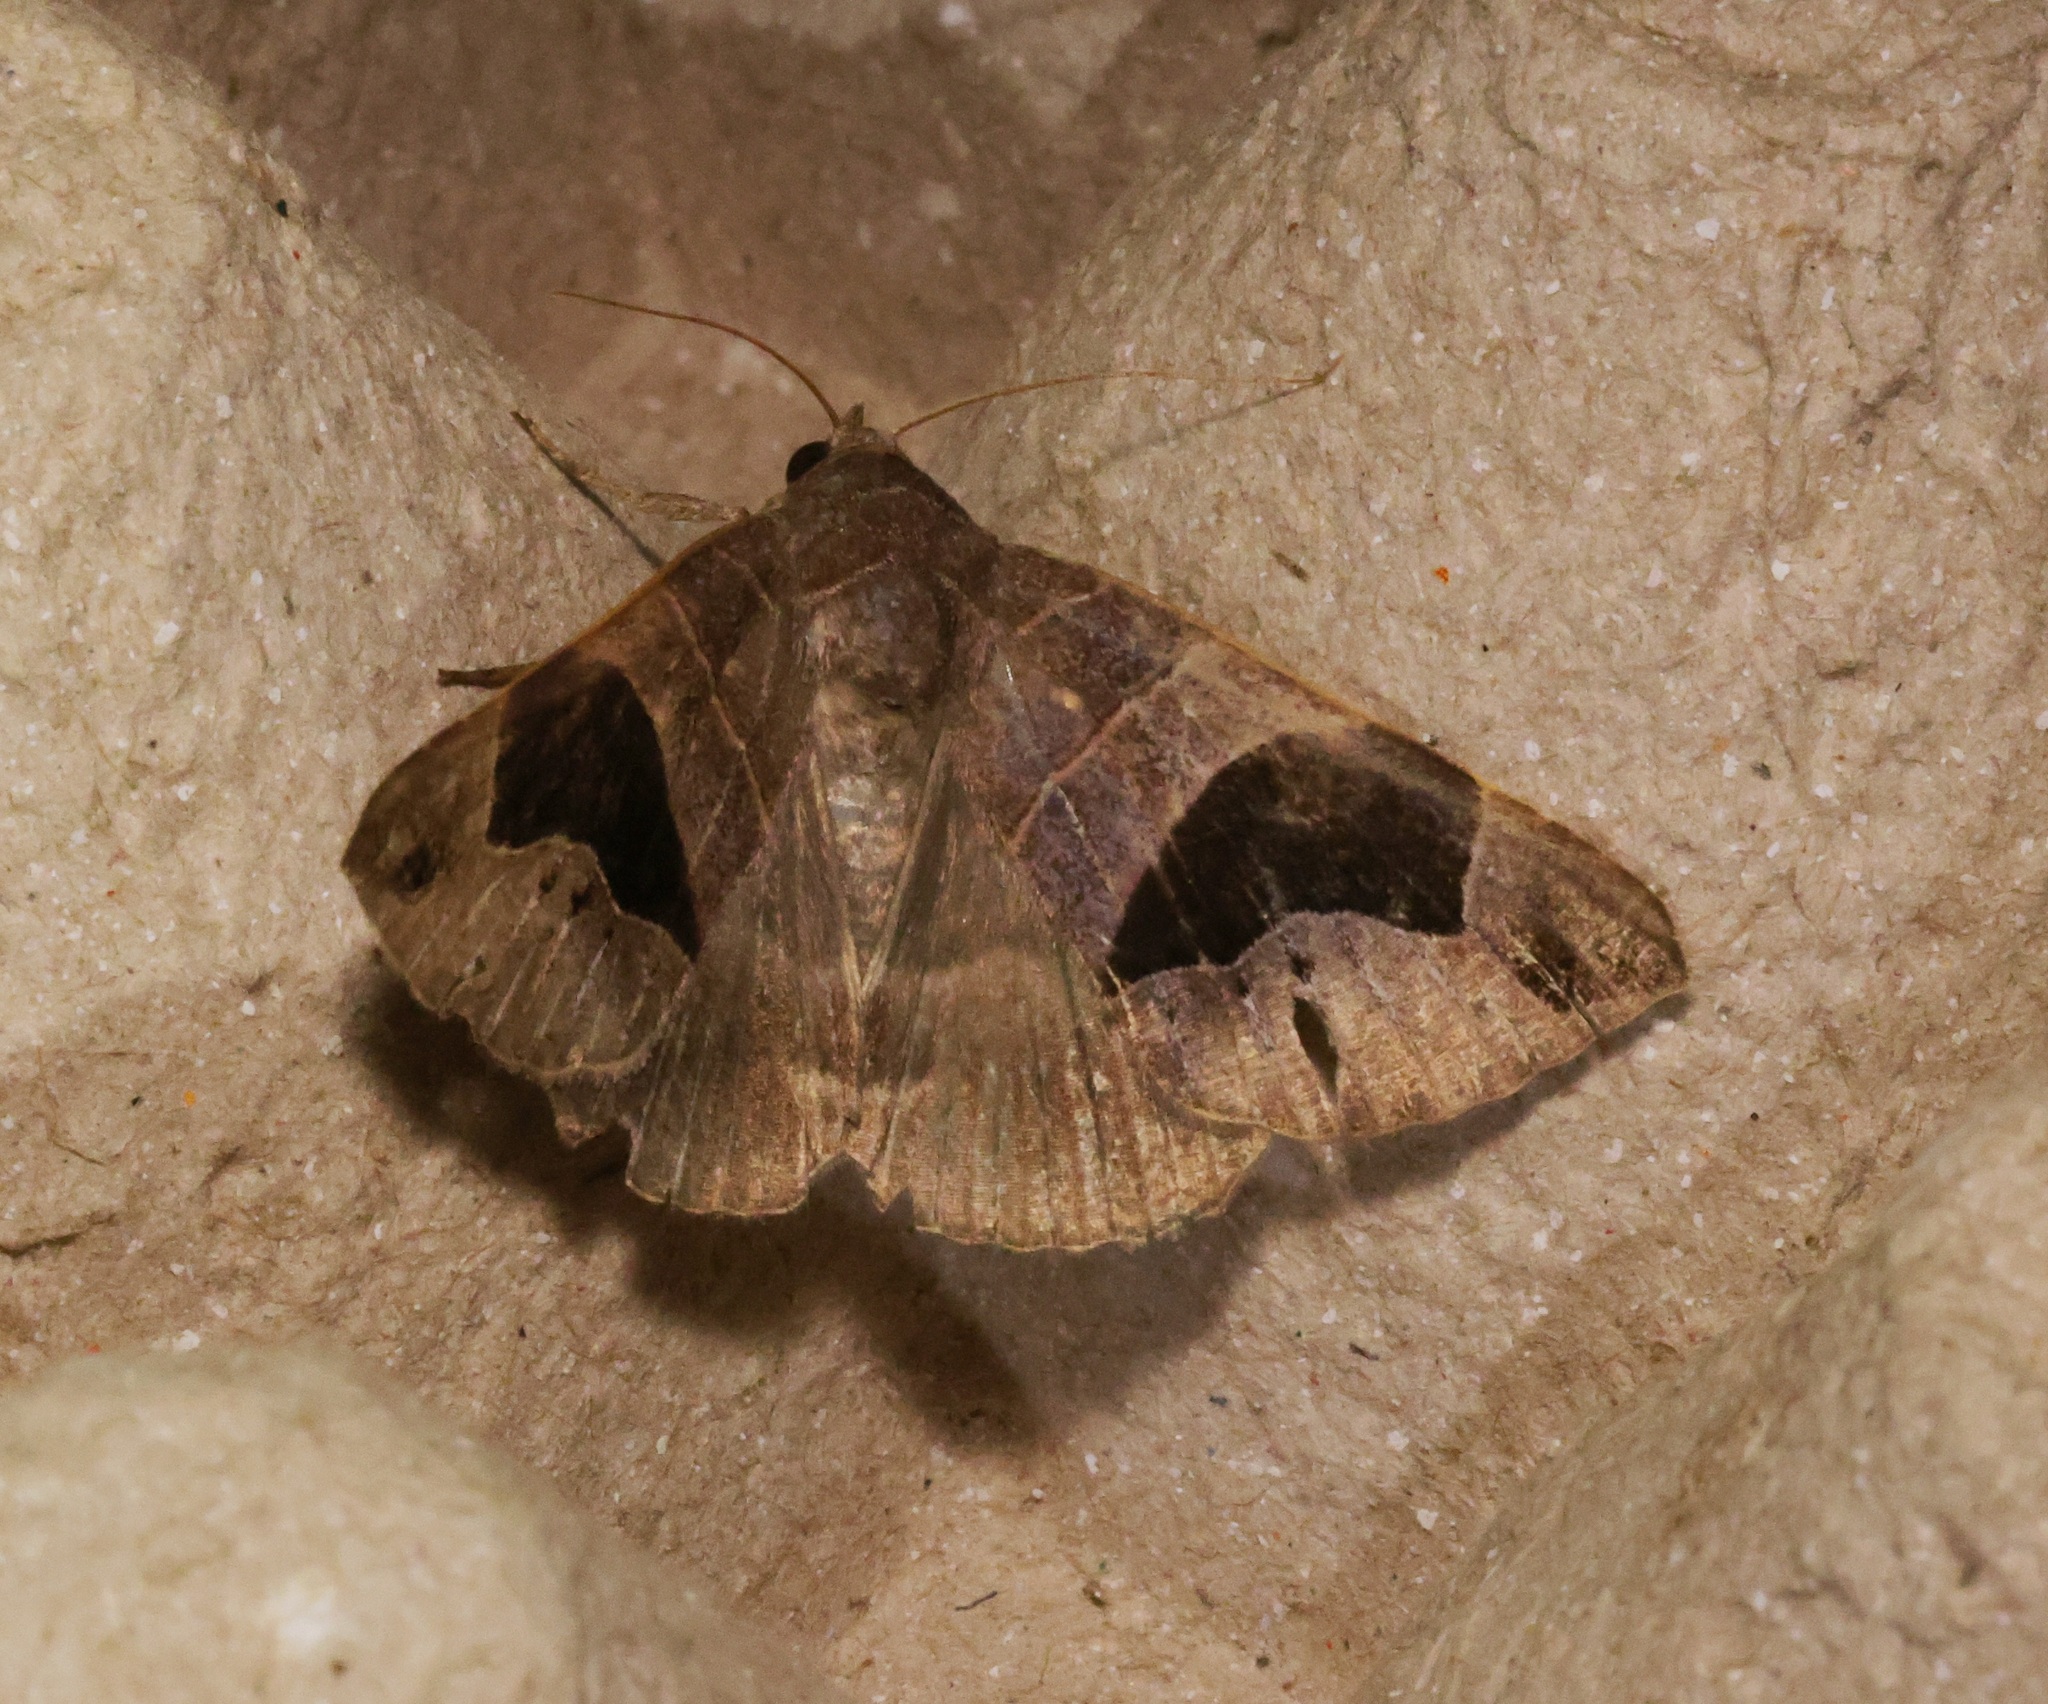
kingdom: Animalia
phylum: Arthropoda
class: Insecta
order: Lepidoptera
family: Erebidae
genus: Bastilla
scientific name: Bastilla joviana
